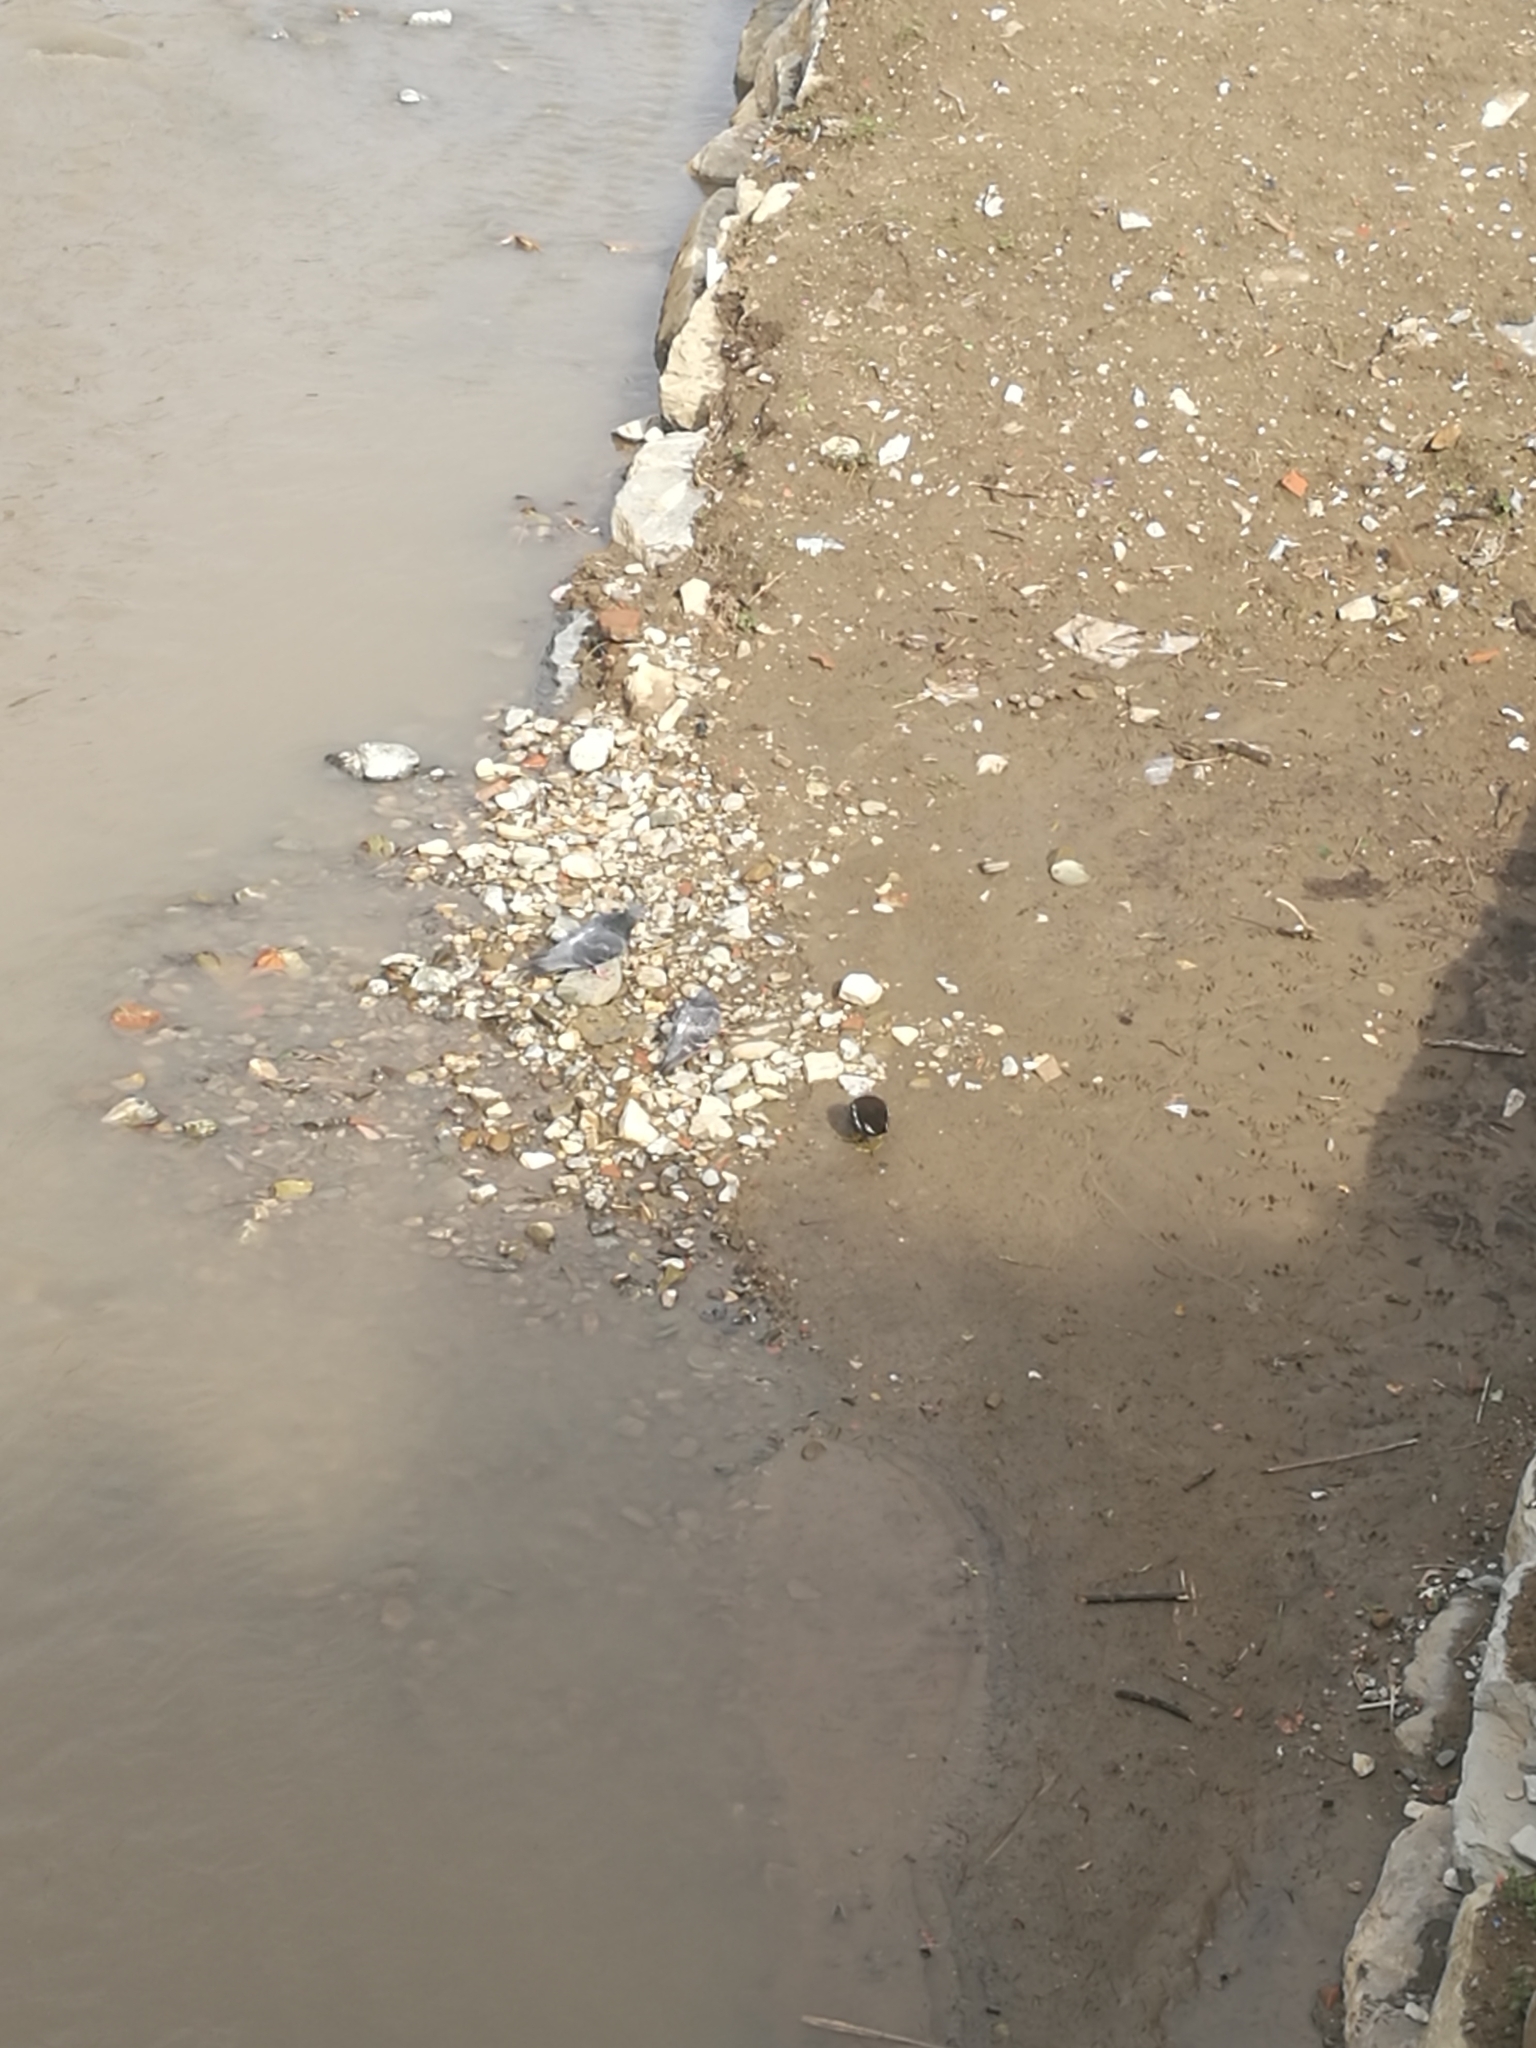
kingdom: Animalia
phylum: Chordata
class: Aves
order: Gruiformes
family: Rallidae
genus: Gallinula
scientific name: Gallinula chloropus
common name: Common moorhen
